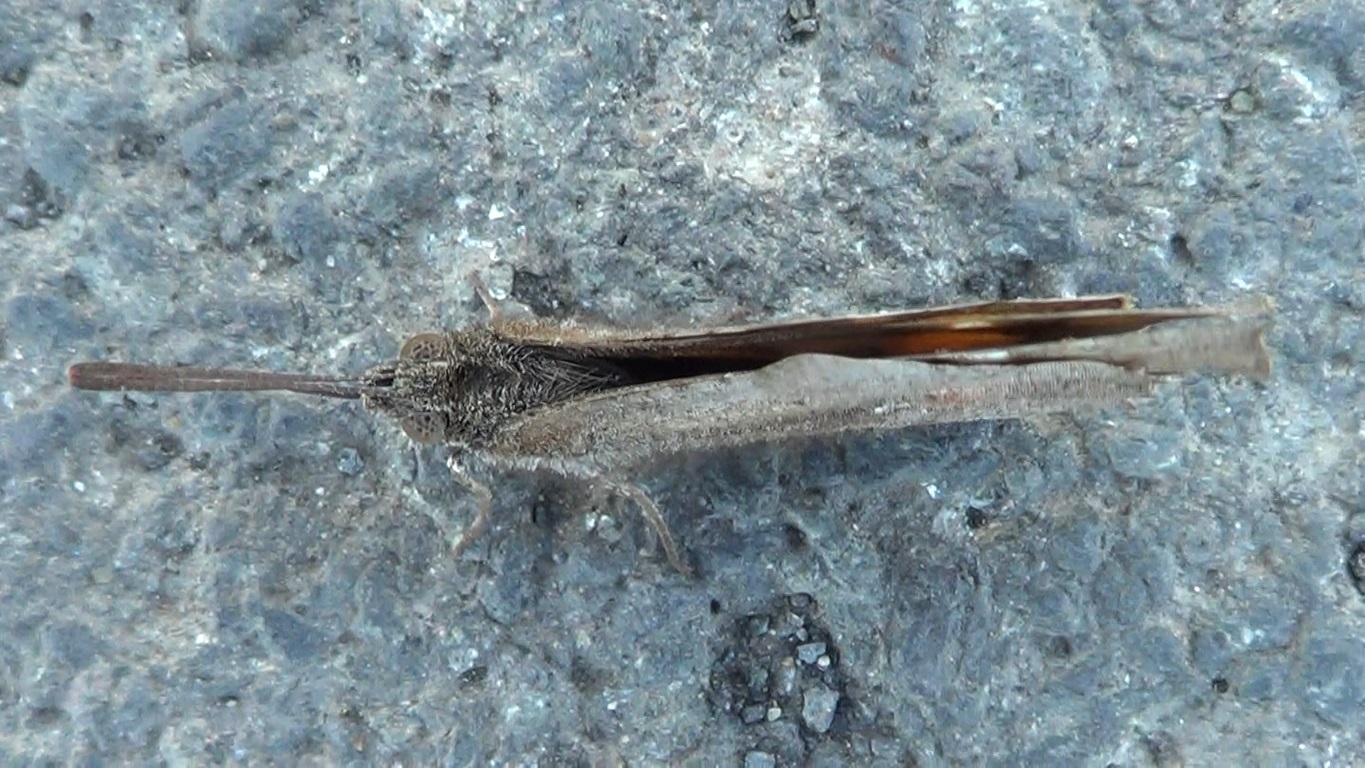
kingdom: Animalia
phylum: Arthropoda
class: Insecta
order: Lepidoptera
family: Nymphalidae
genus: Libythea
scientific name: Libythea celtis
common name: Nettle-tree butterfly
